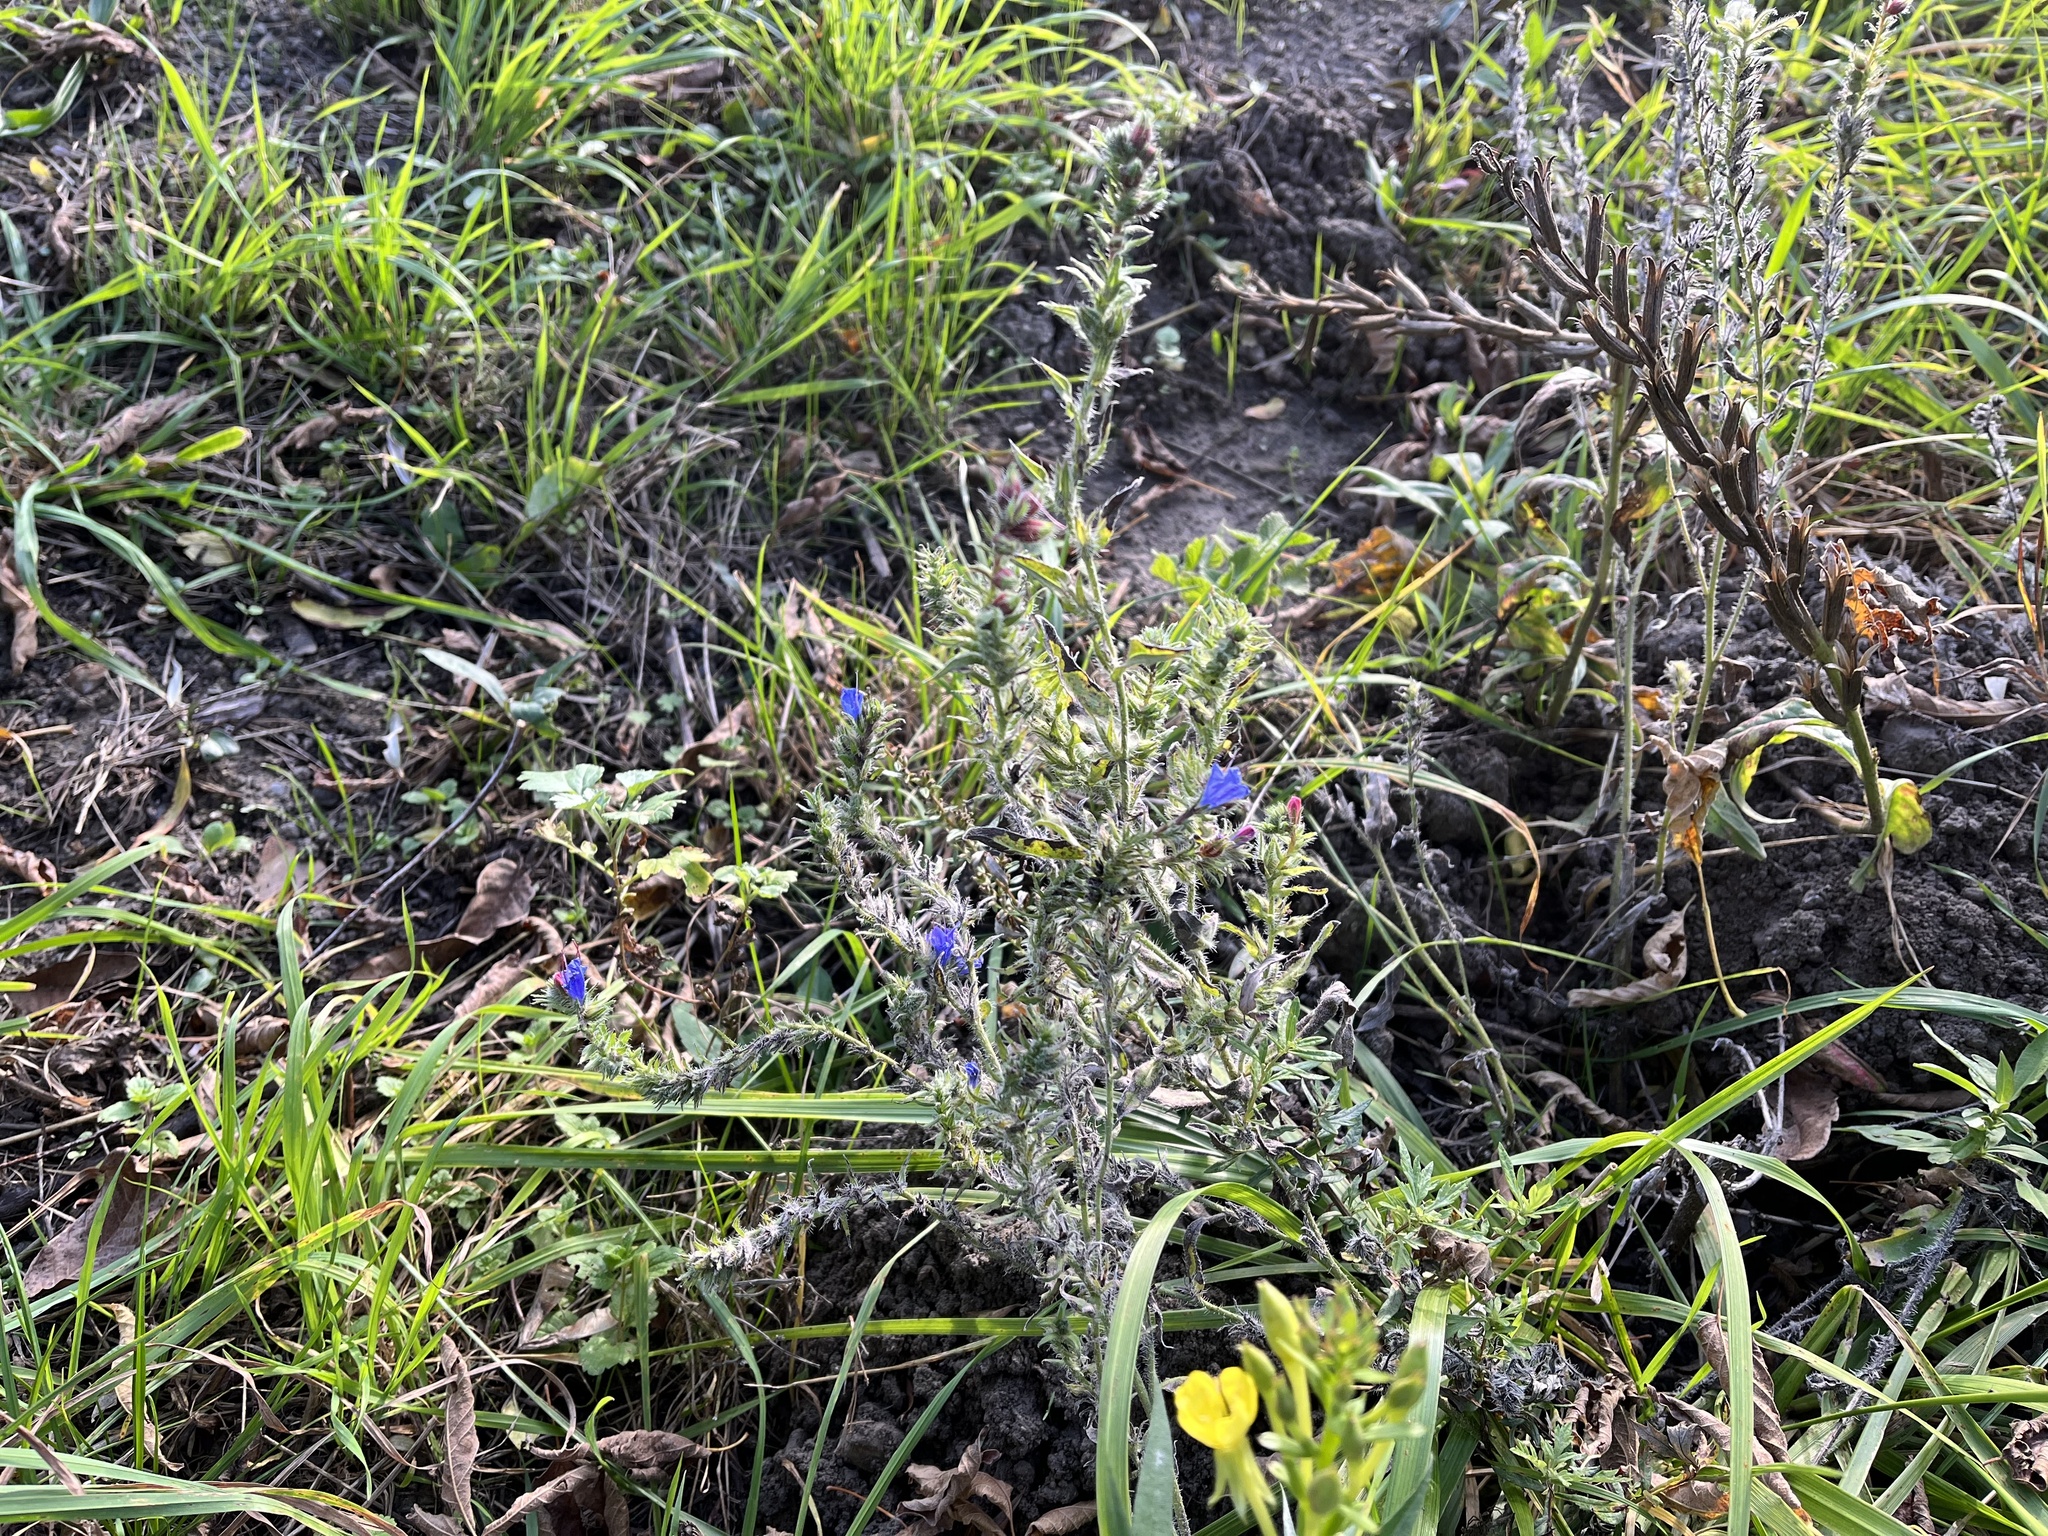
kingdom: Plantae
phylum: Tracheophyta
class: Magnoliopsida
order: Boraginales
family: Boraginaceae
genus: Echium
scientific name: Echium vulgare
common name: Common viper's bugloss
